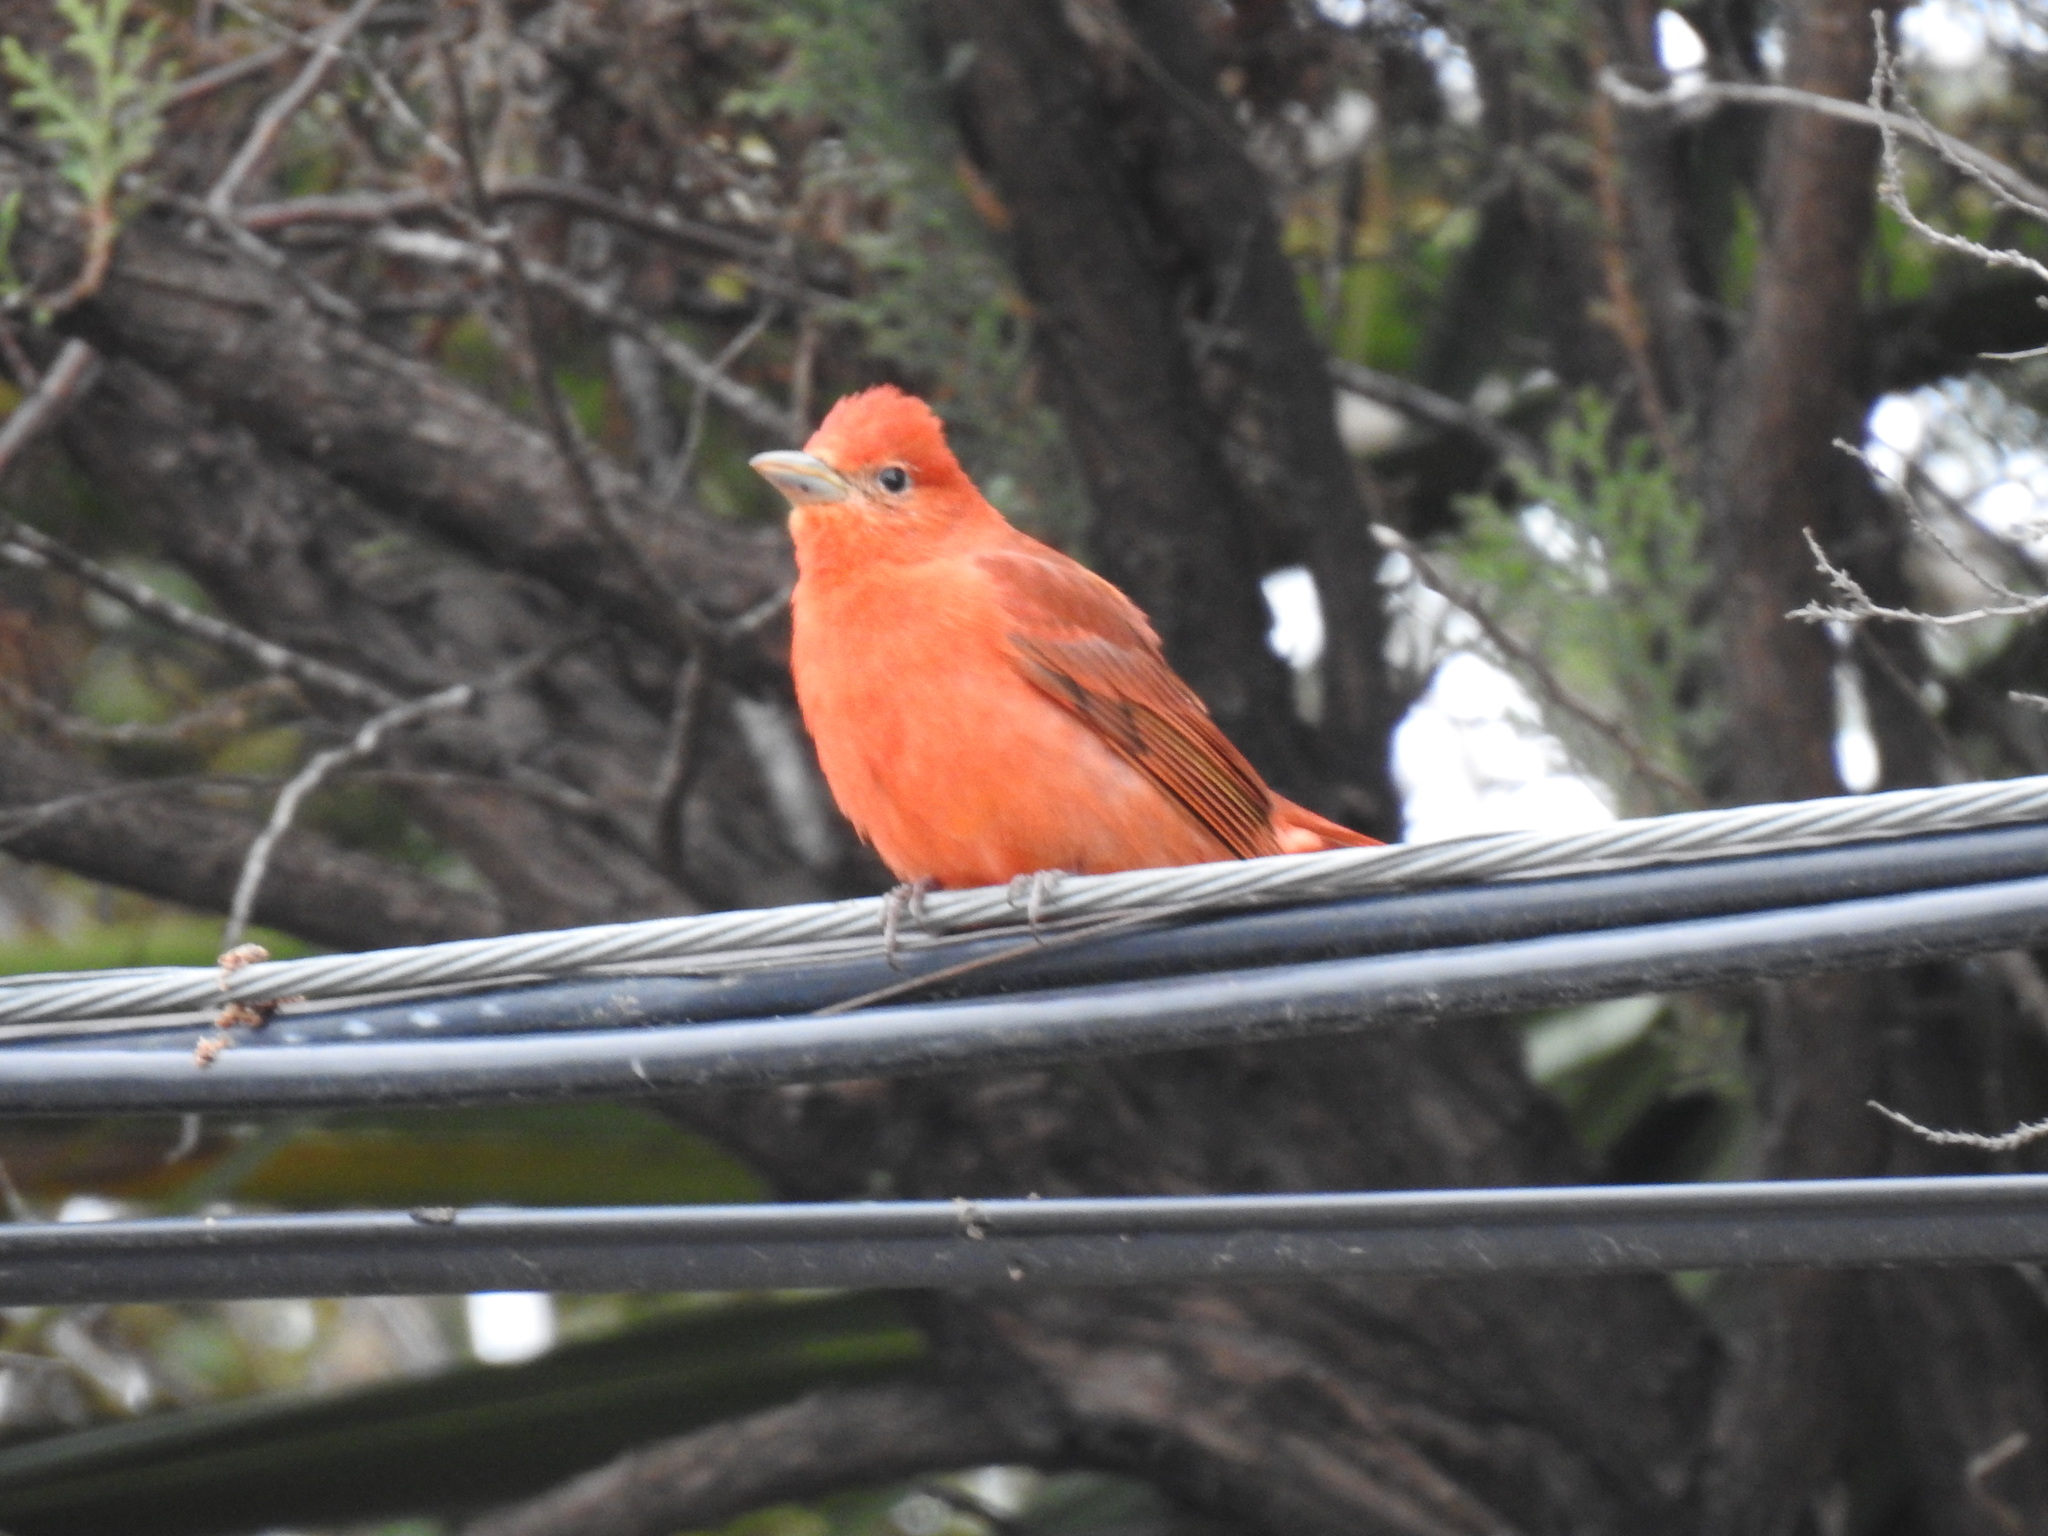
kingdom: Animalia
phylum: Chordata
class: Aves
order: Passeriformes
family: Cardinalidae
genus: Piranga
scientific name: Piranga rubra
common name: Summer tanager
